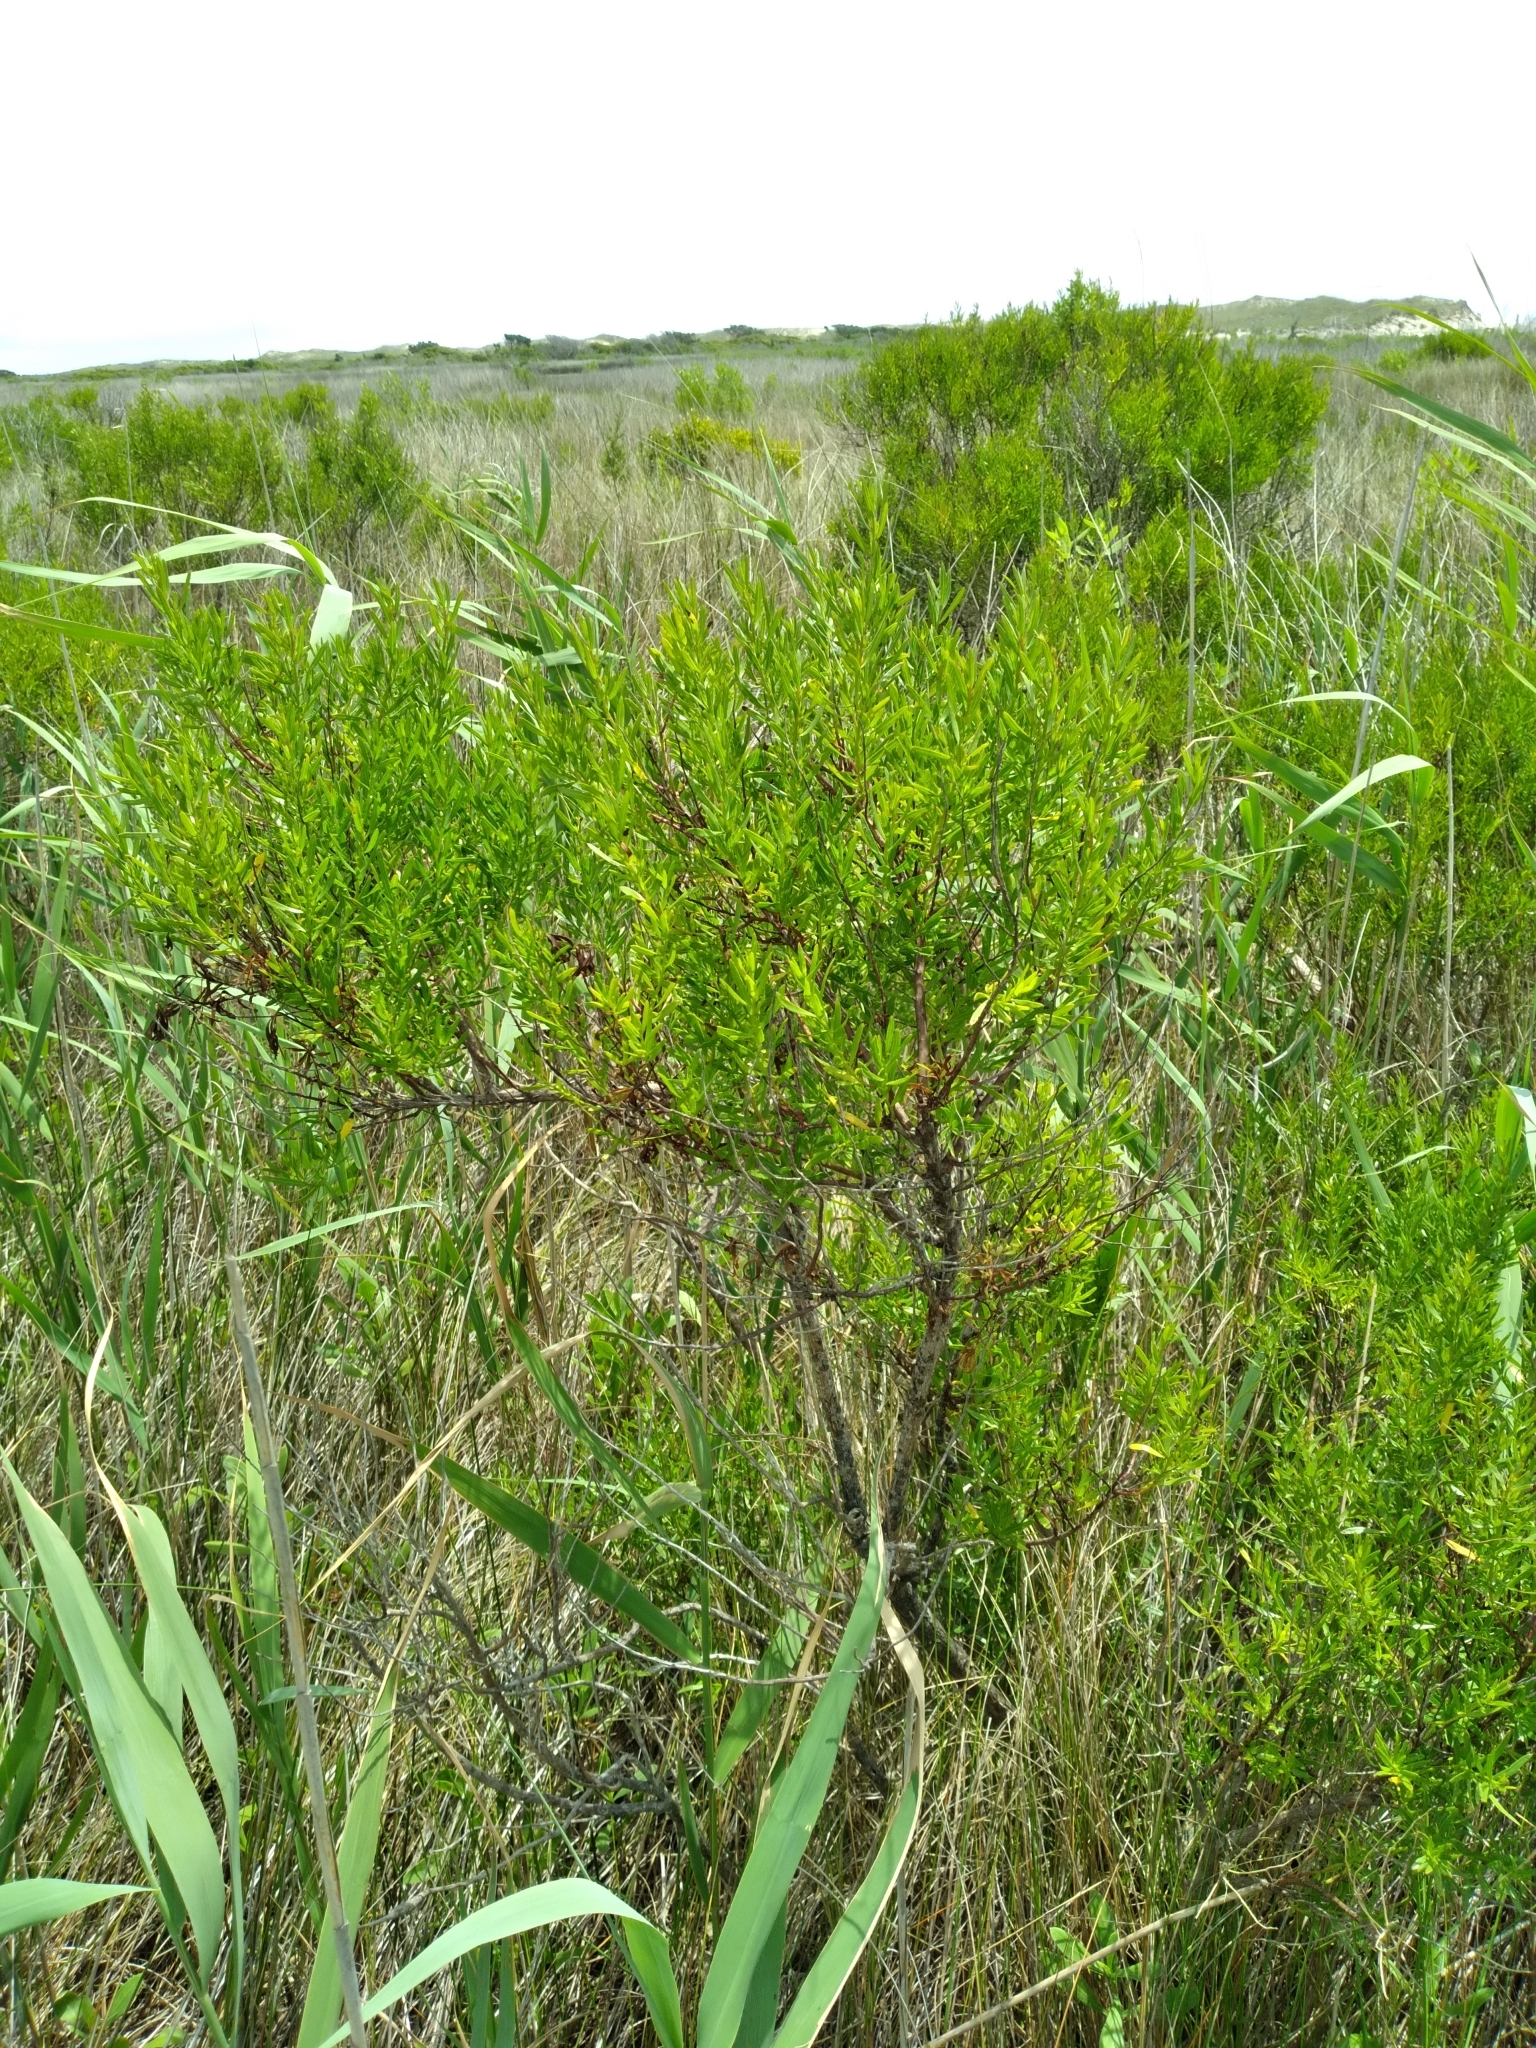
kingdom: Plantae
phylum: Tracheophyta
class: Magnoliopsida
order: Asterales
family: Asteraceae
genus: Baccharis
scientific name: Baccharis angustifolia
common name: Narrow-leaf baccharis
